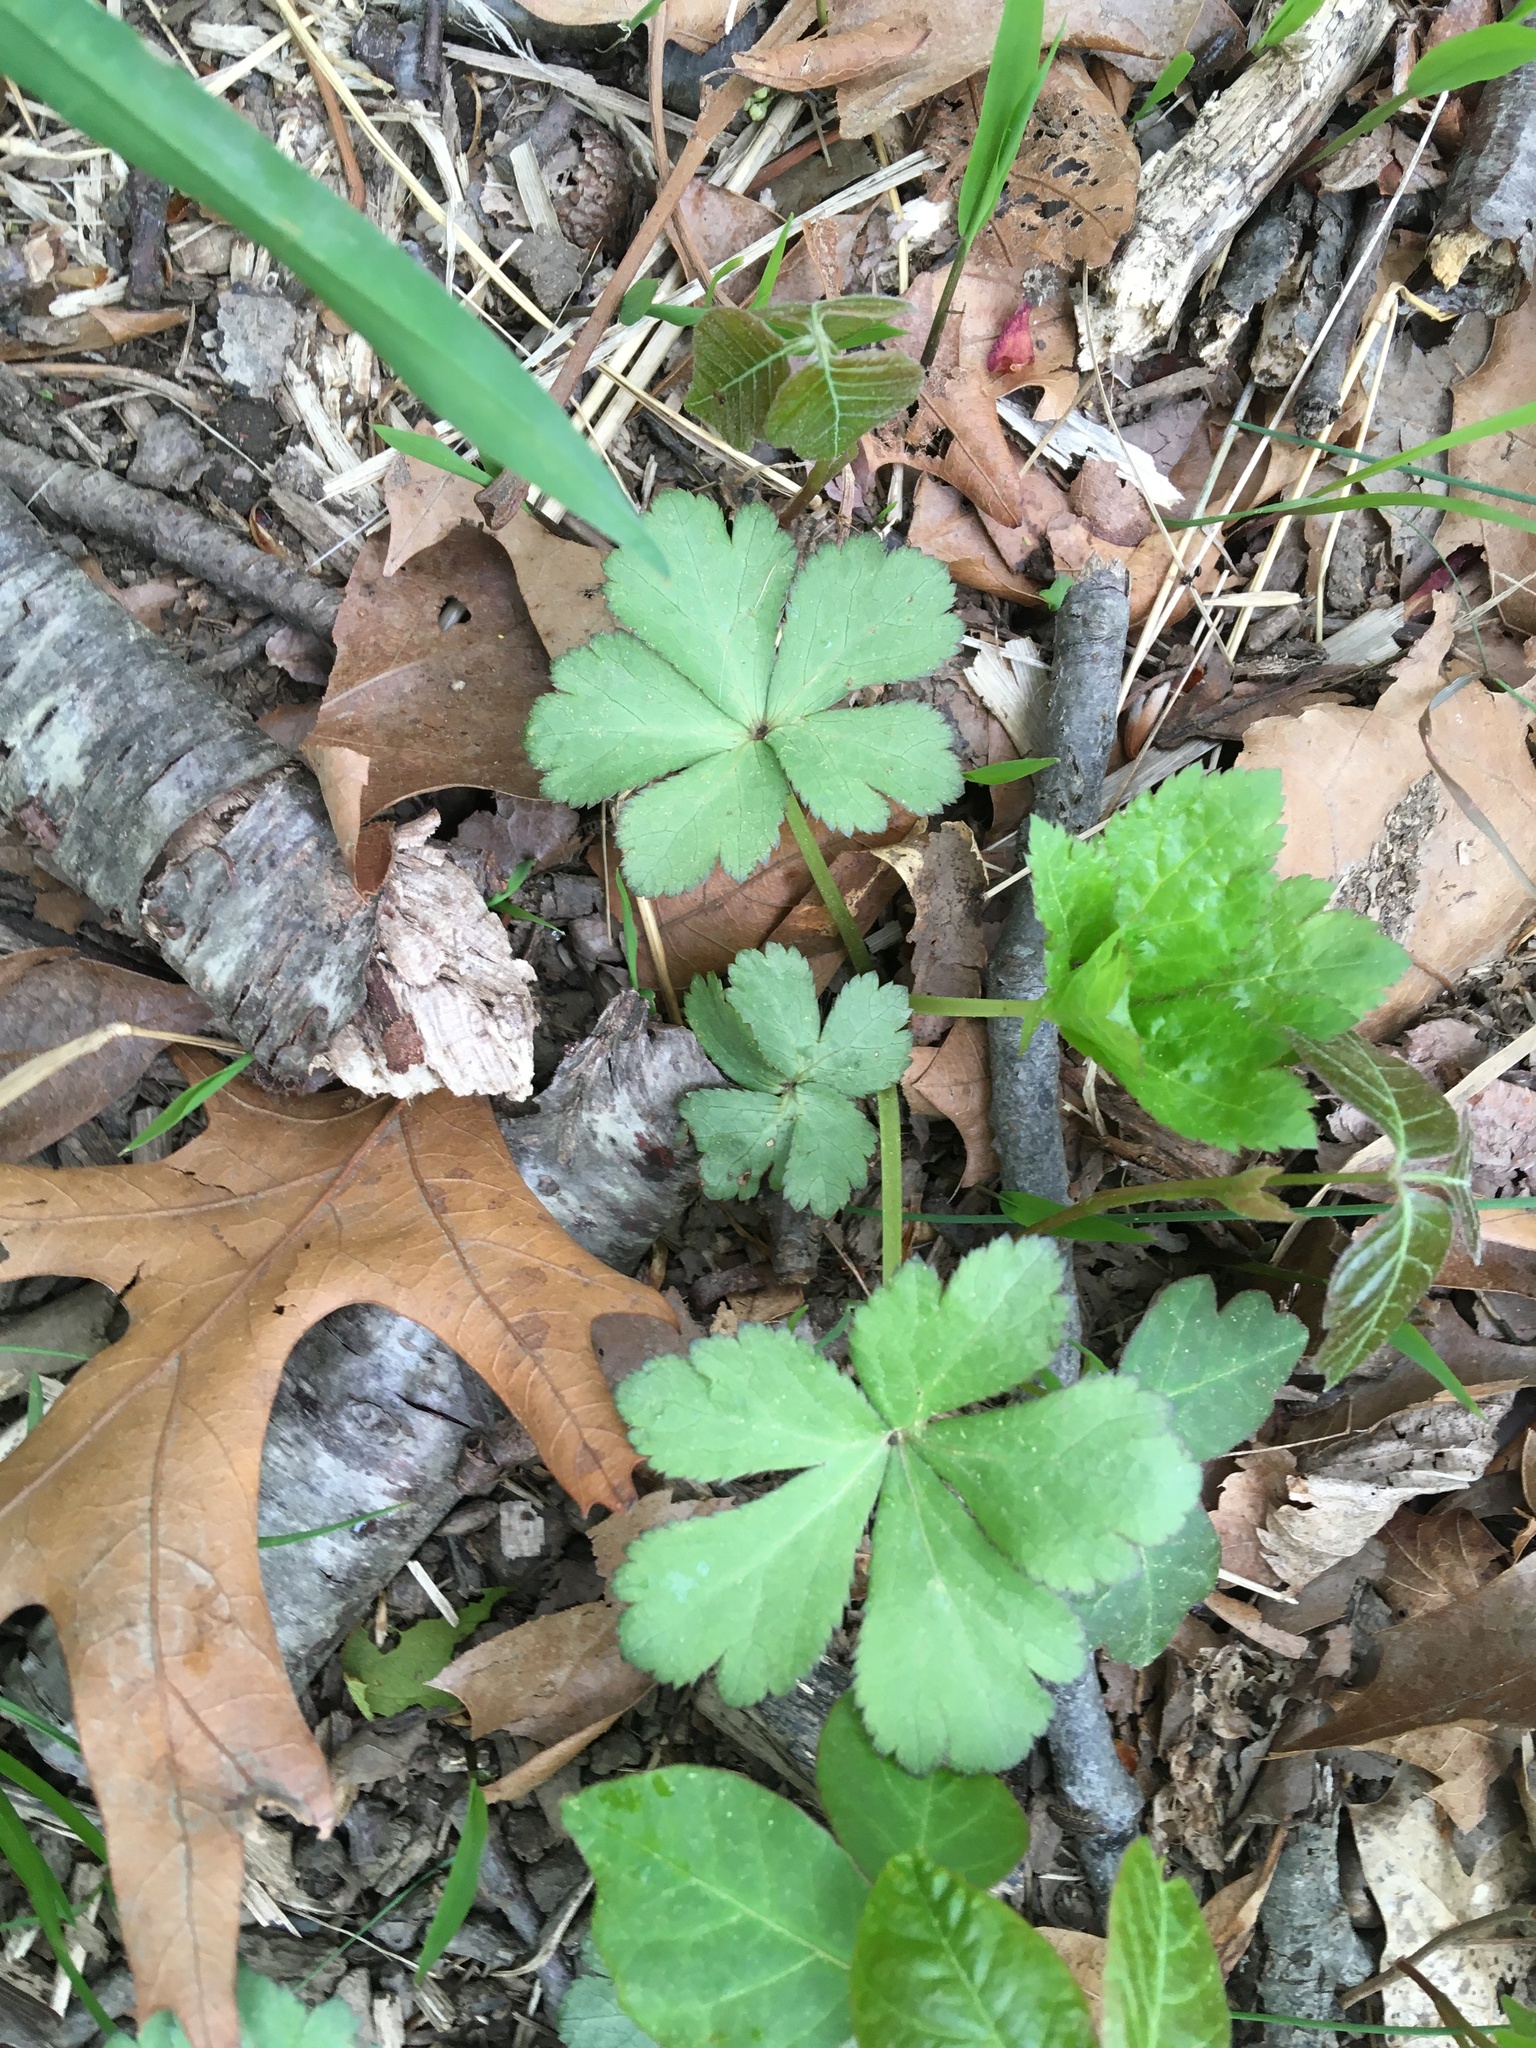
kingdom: Plantae
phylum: Tracheophyta
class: Magnoliopsida
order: Apiales
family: Apiaceae
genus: Sanicula
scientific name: Sanicula canadensis
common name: Canada sanicle
